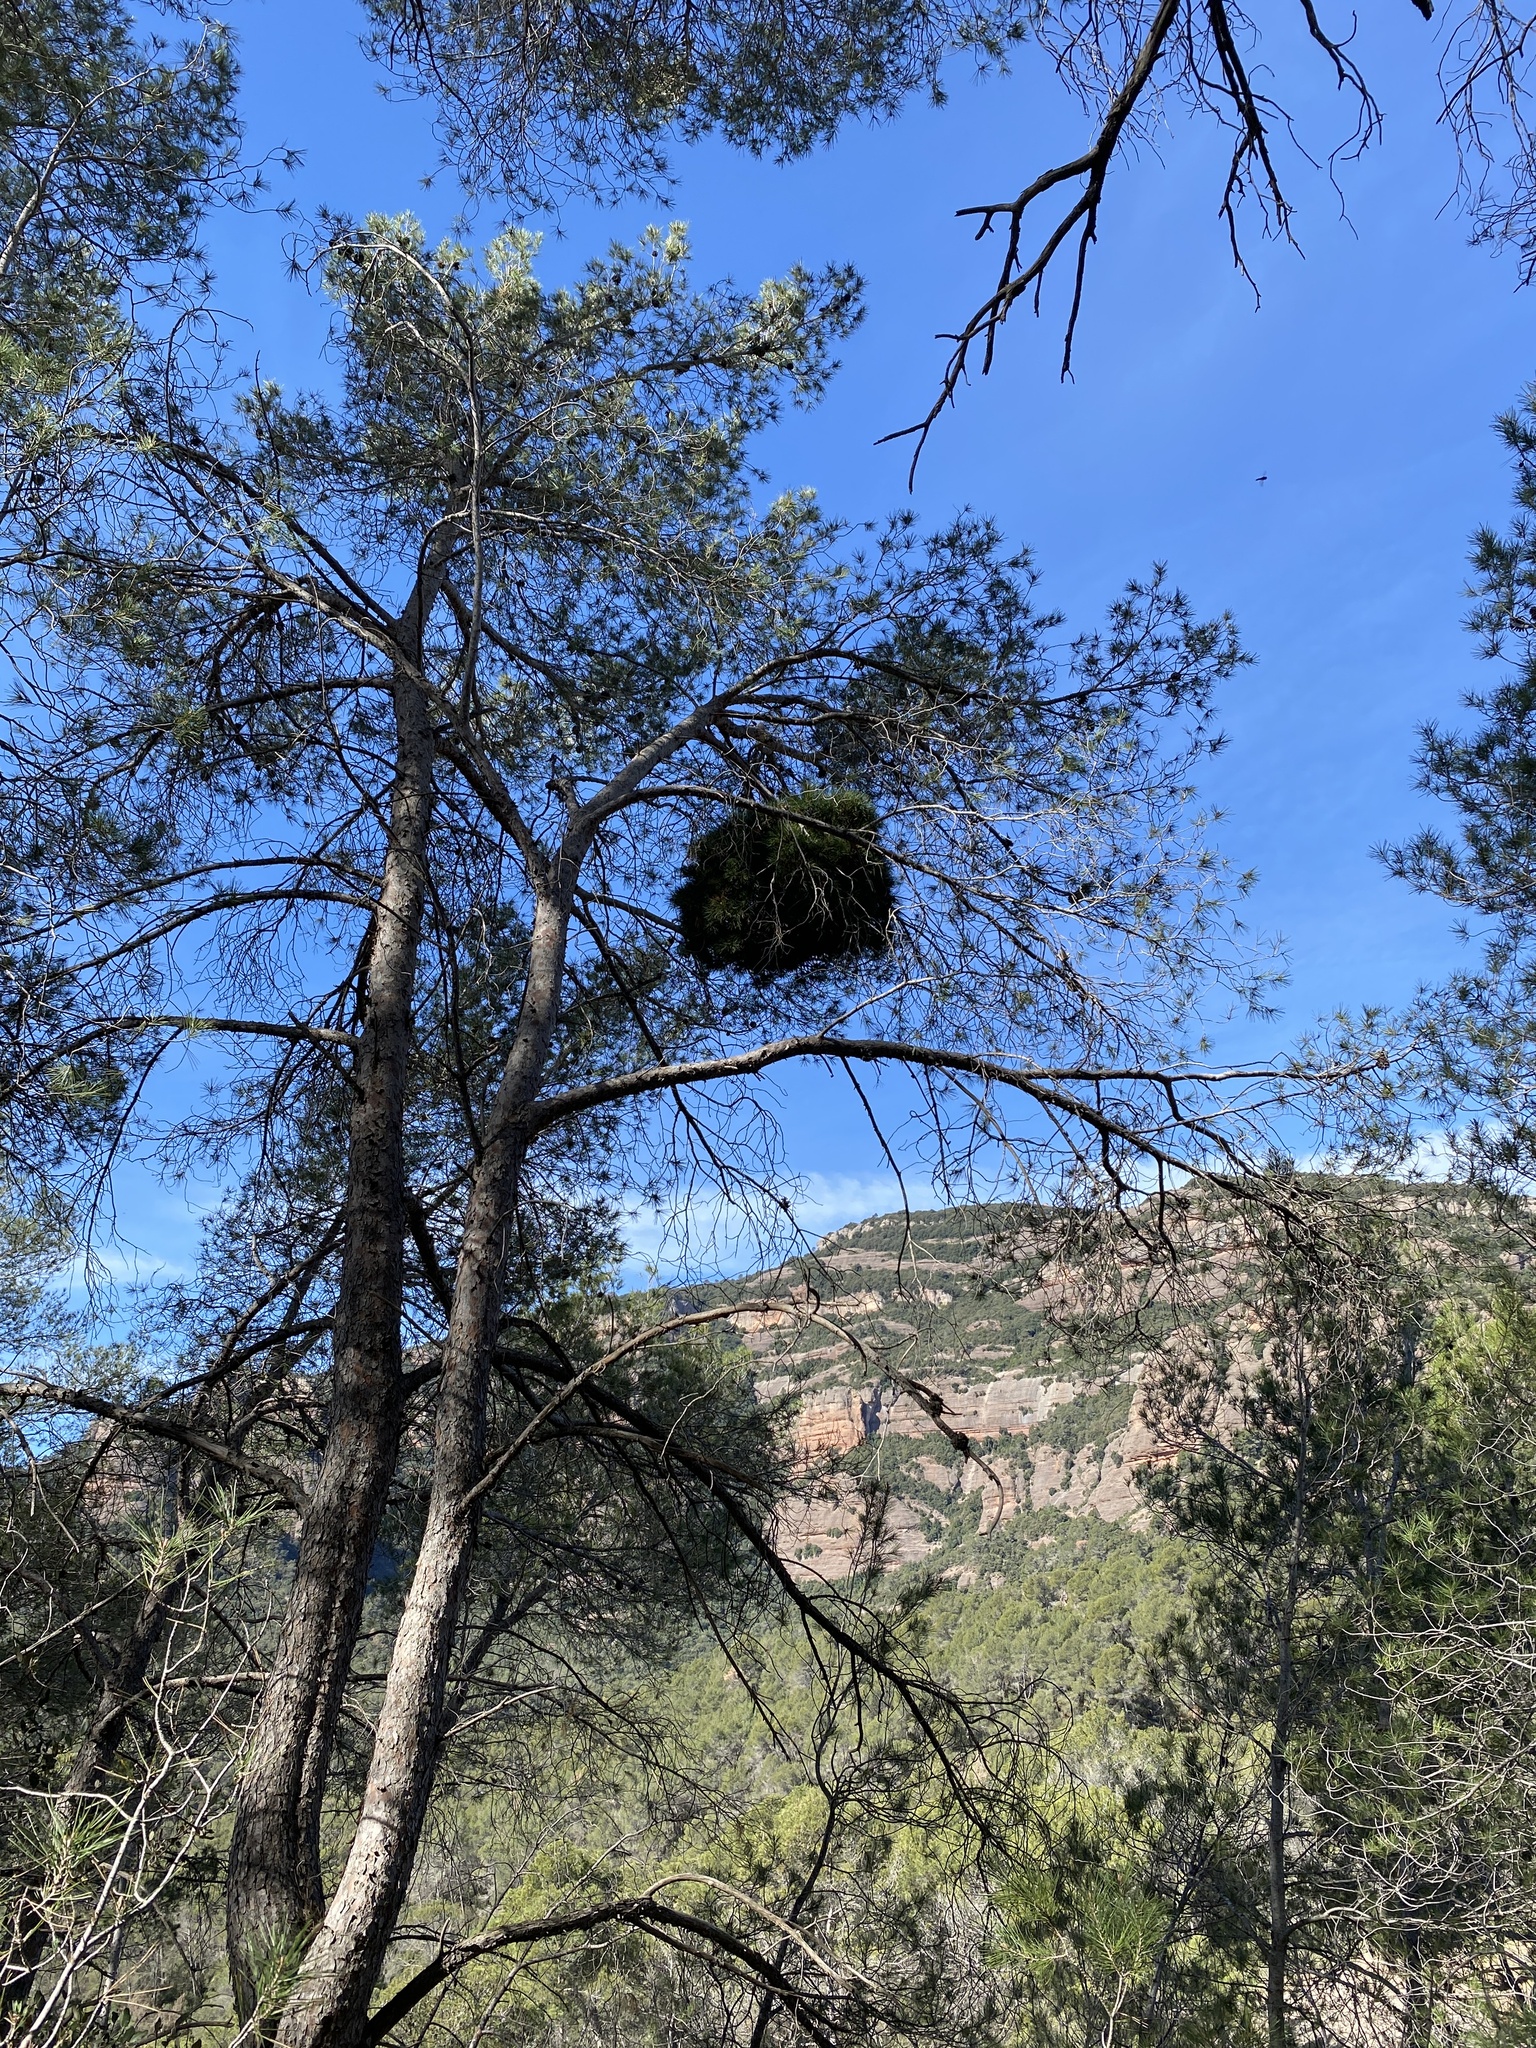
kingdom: Bacteria
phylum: Firmicutes
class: Bacilli
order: Acholeplasmatales
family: Acholeplasmataceae
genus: Phytoplasma
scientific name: Phytoplasma pini
